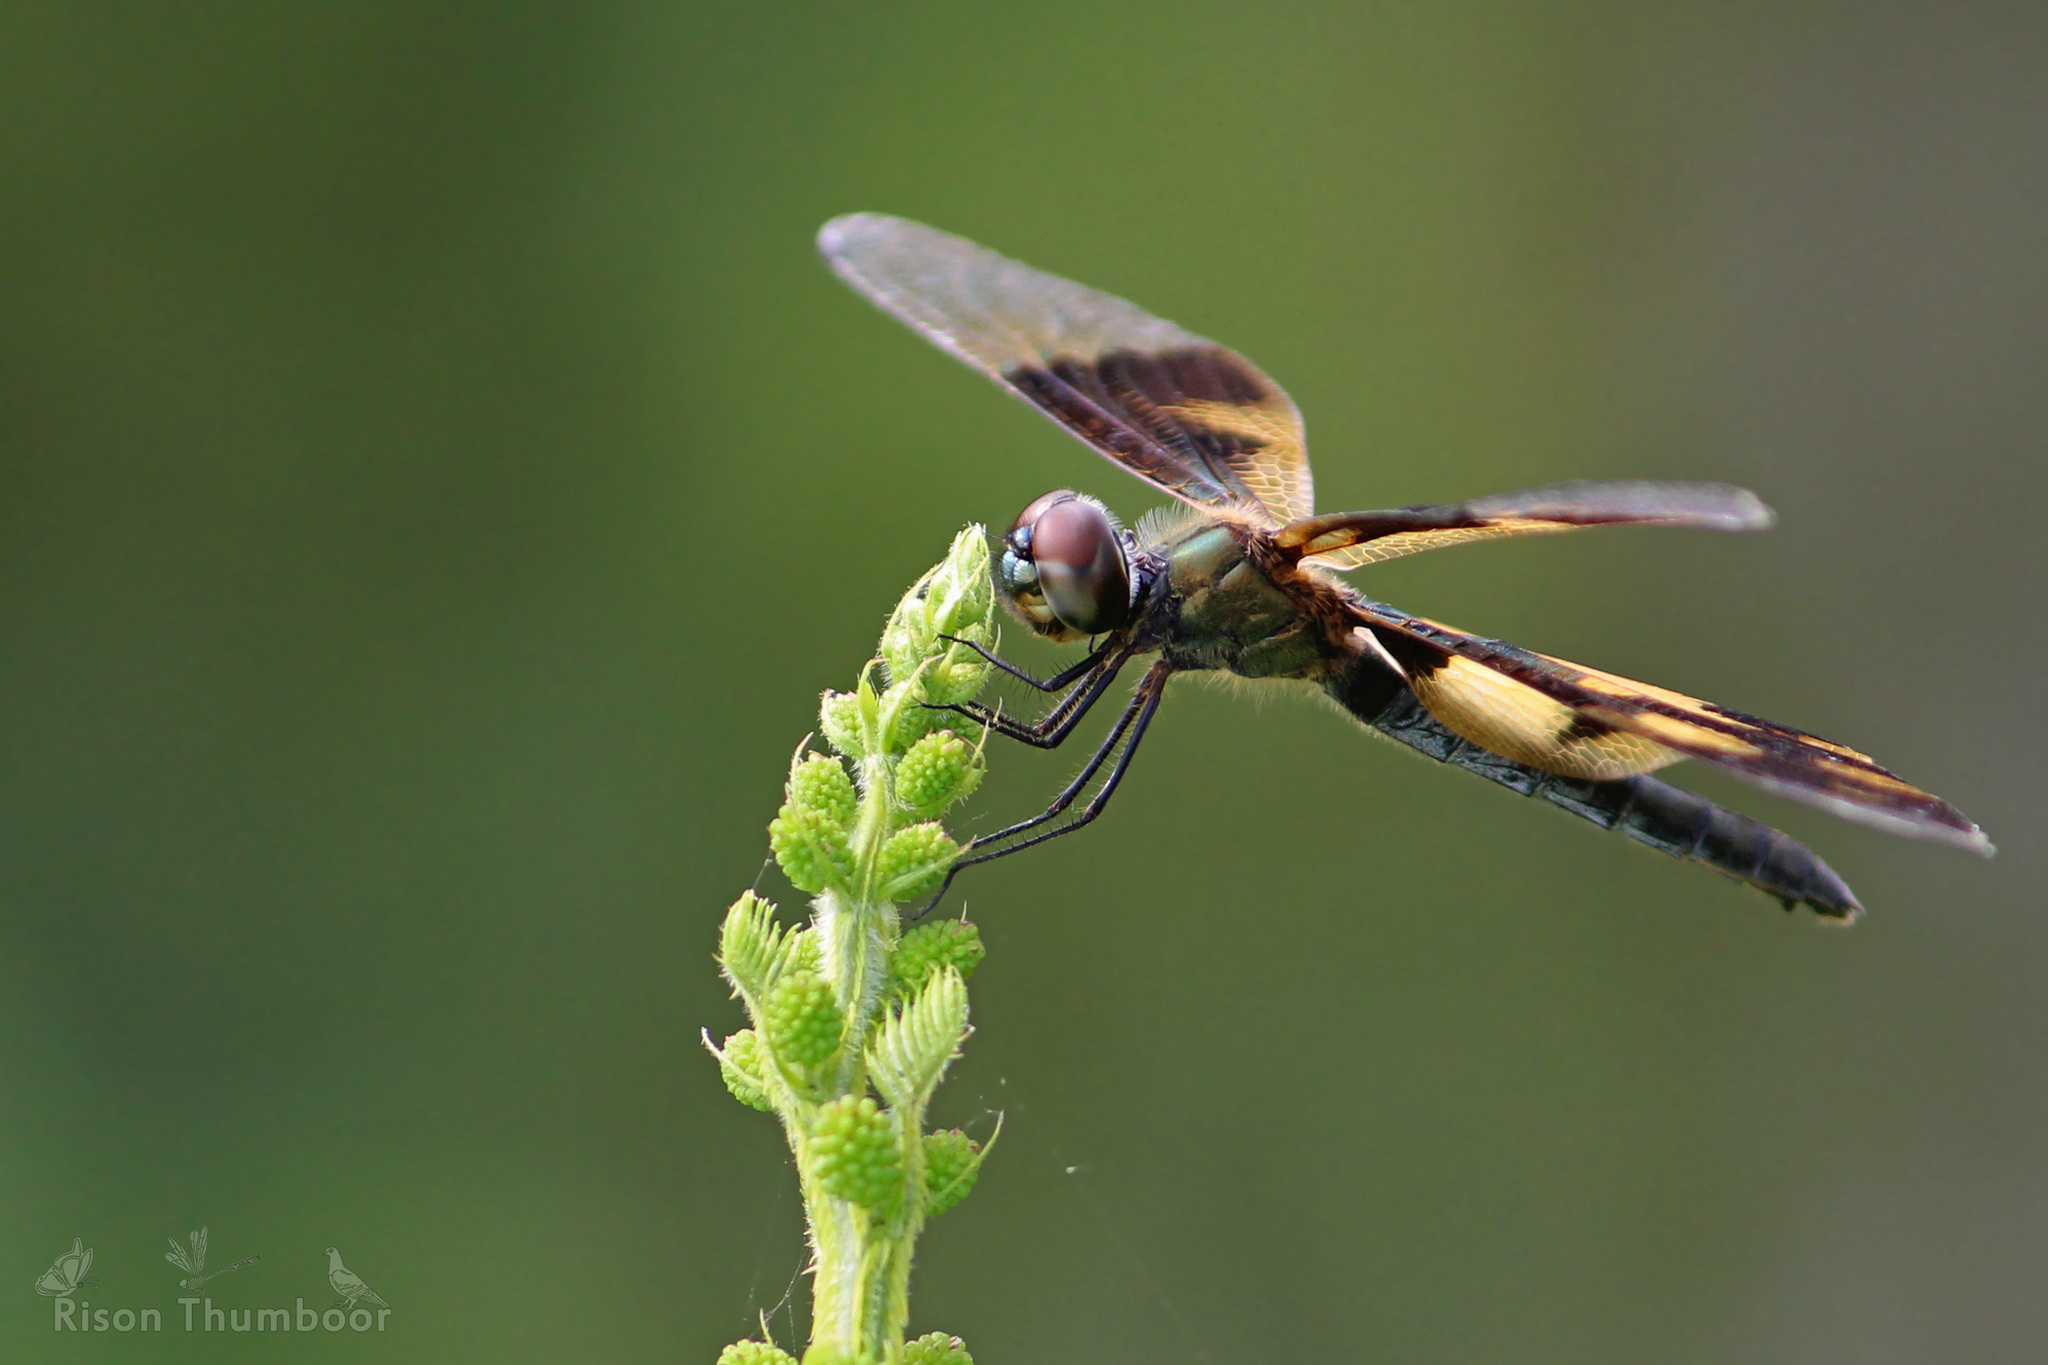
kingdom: Animalia
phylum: Arthropoda
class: Insecta
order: Odonata
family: Libellulidae
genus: Rhyothemis
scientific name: Rhyothemis variegata
